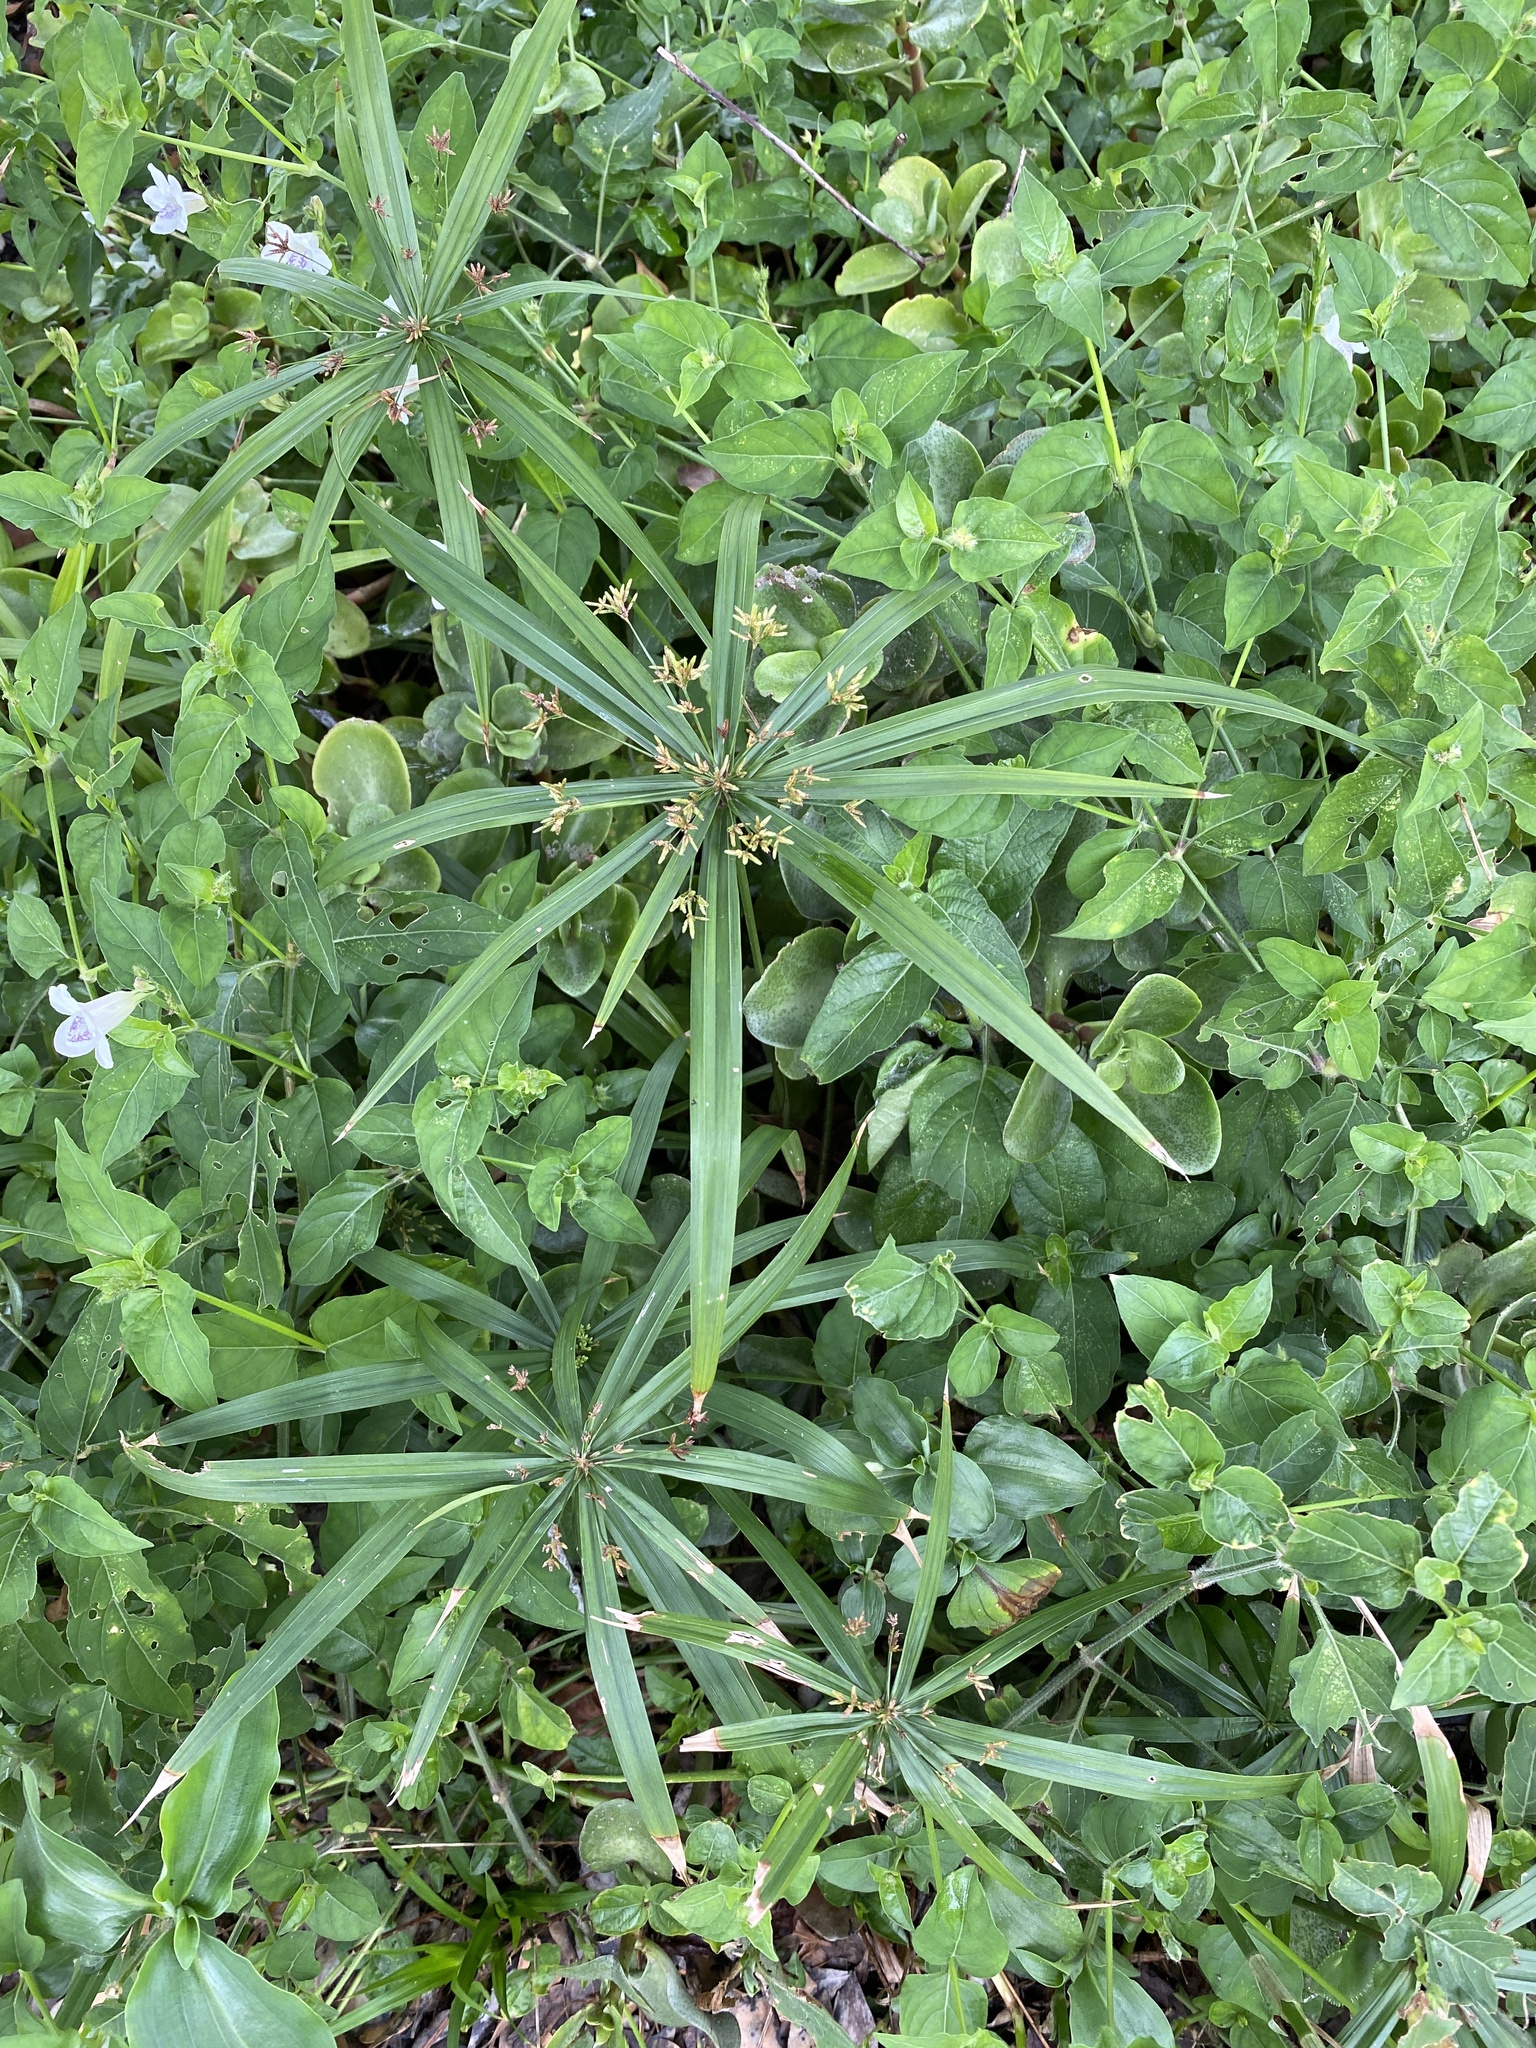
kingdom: Plantae
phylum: Tracheophyta
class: Liliopsida
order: Poales
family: Cyperaceae
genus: Cyperus
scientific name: Cyperus albostriatus
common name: Dwarf umbrella-grass
